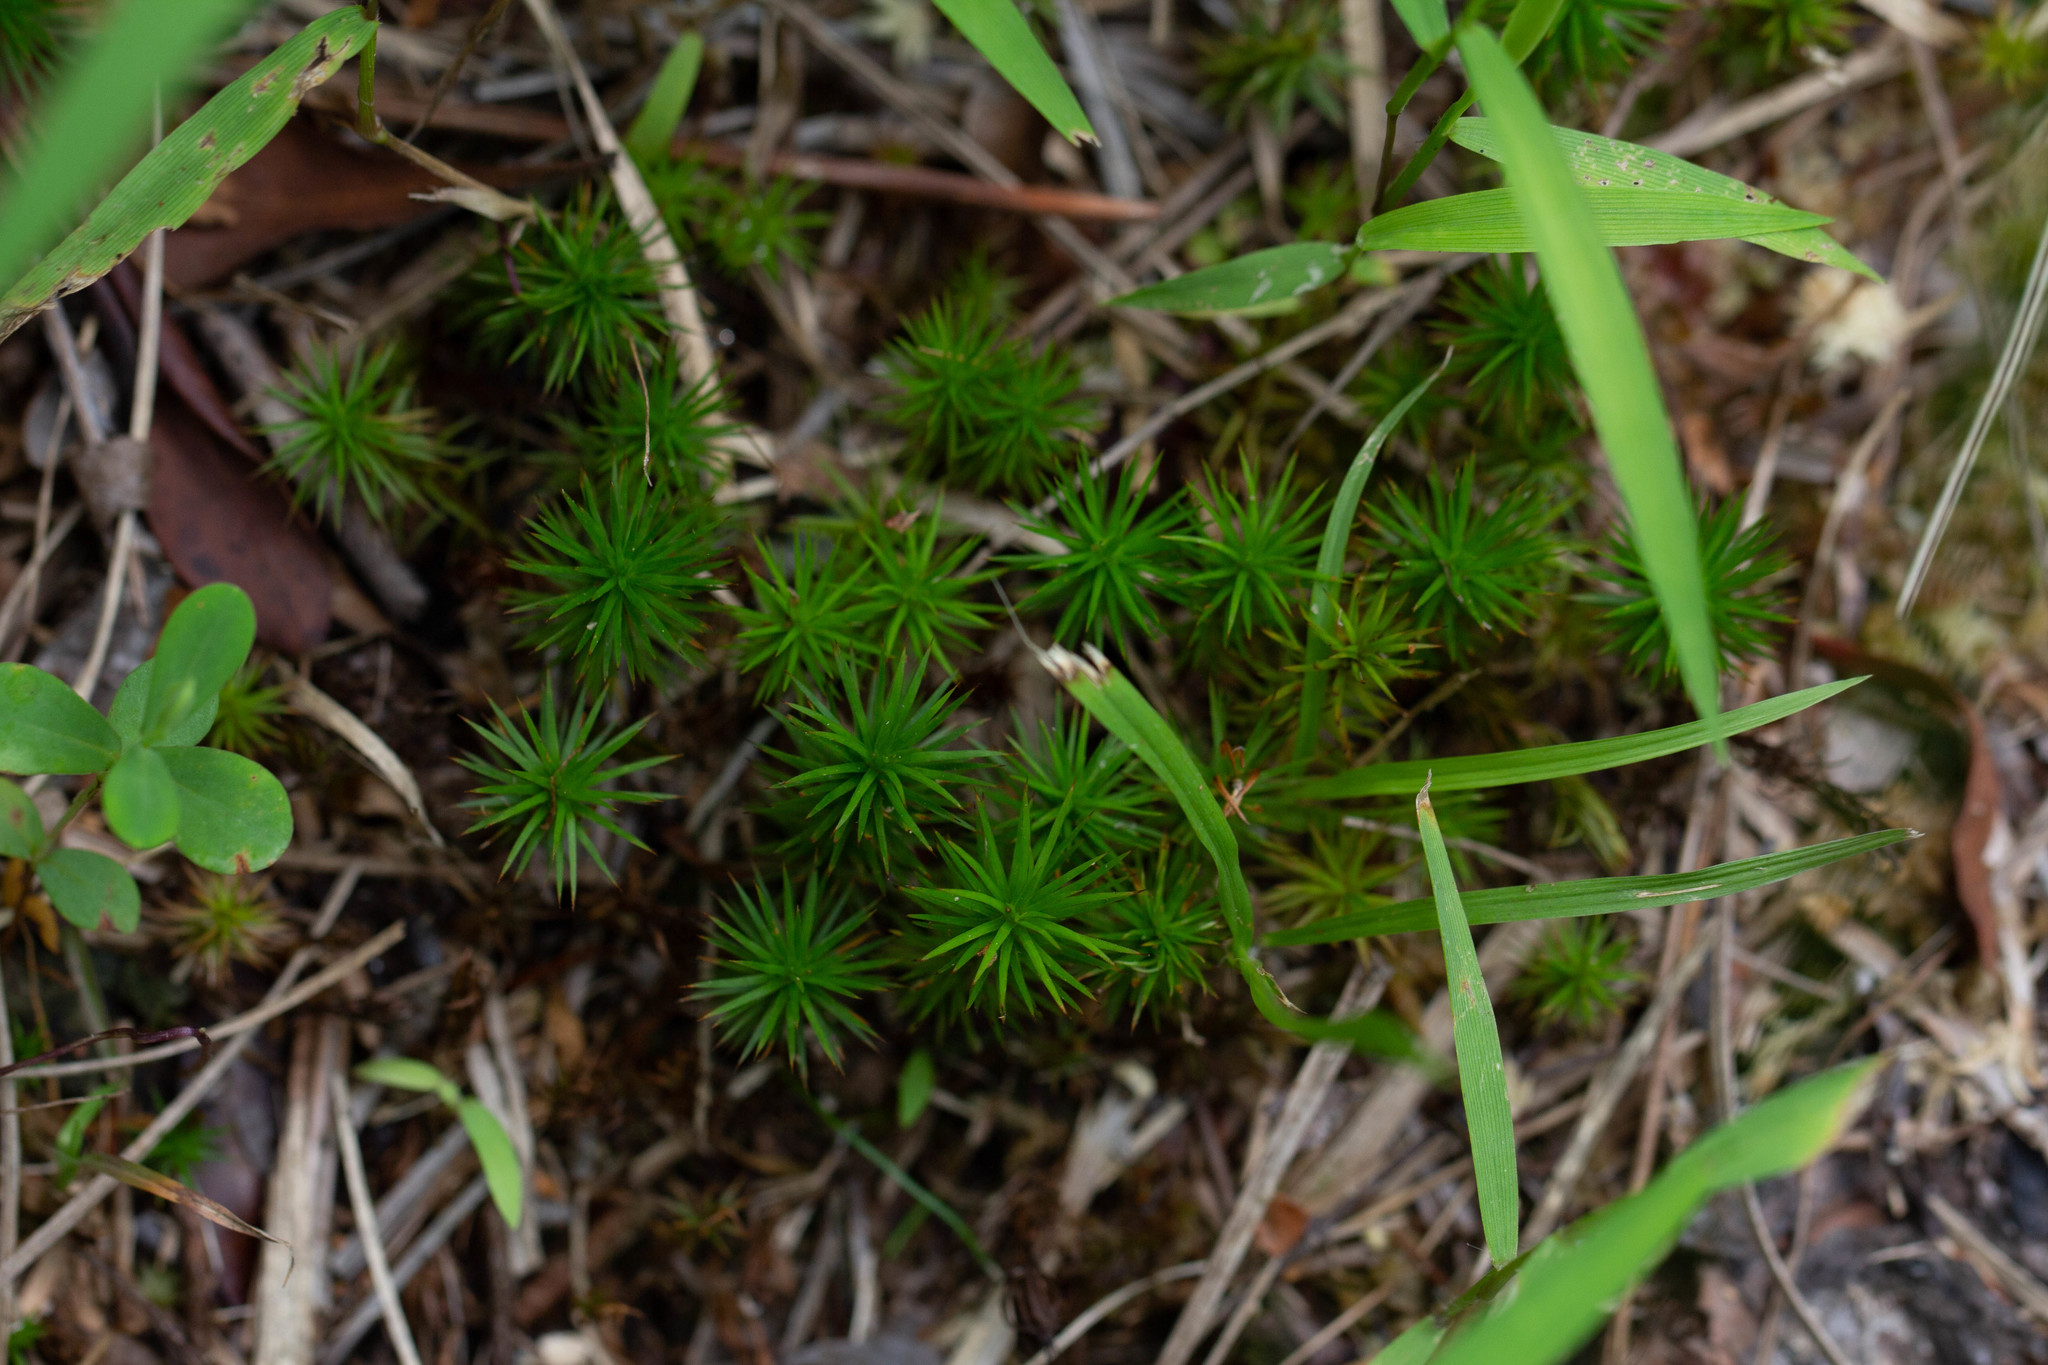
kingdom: Plantae
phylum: Bryophyta
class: Polytrichopsida
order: Polytrichales
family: Polytrichaceae
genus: Polytrichum
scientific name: Polytrichum commune
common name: Common haircap
